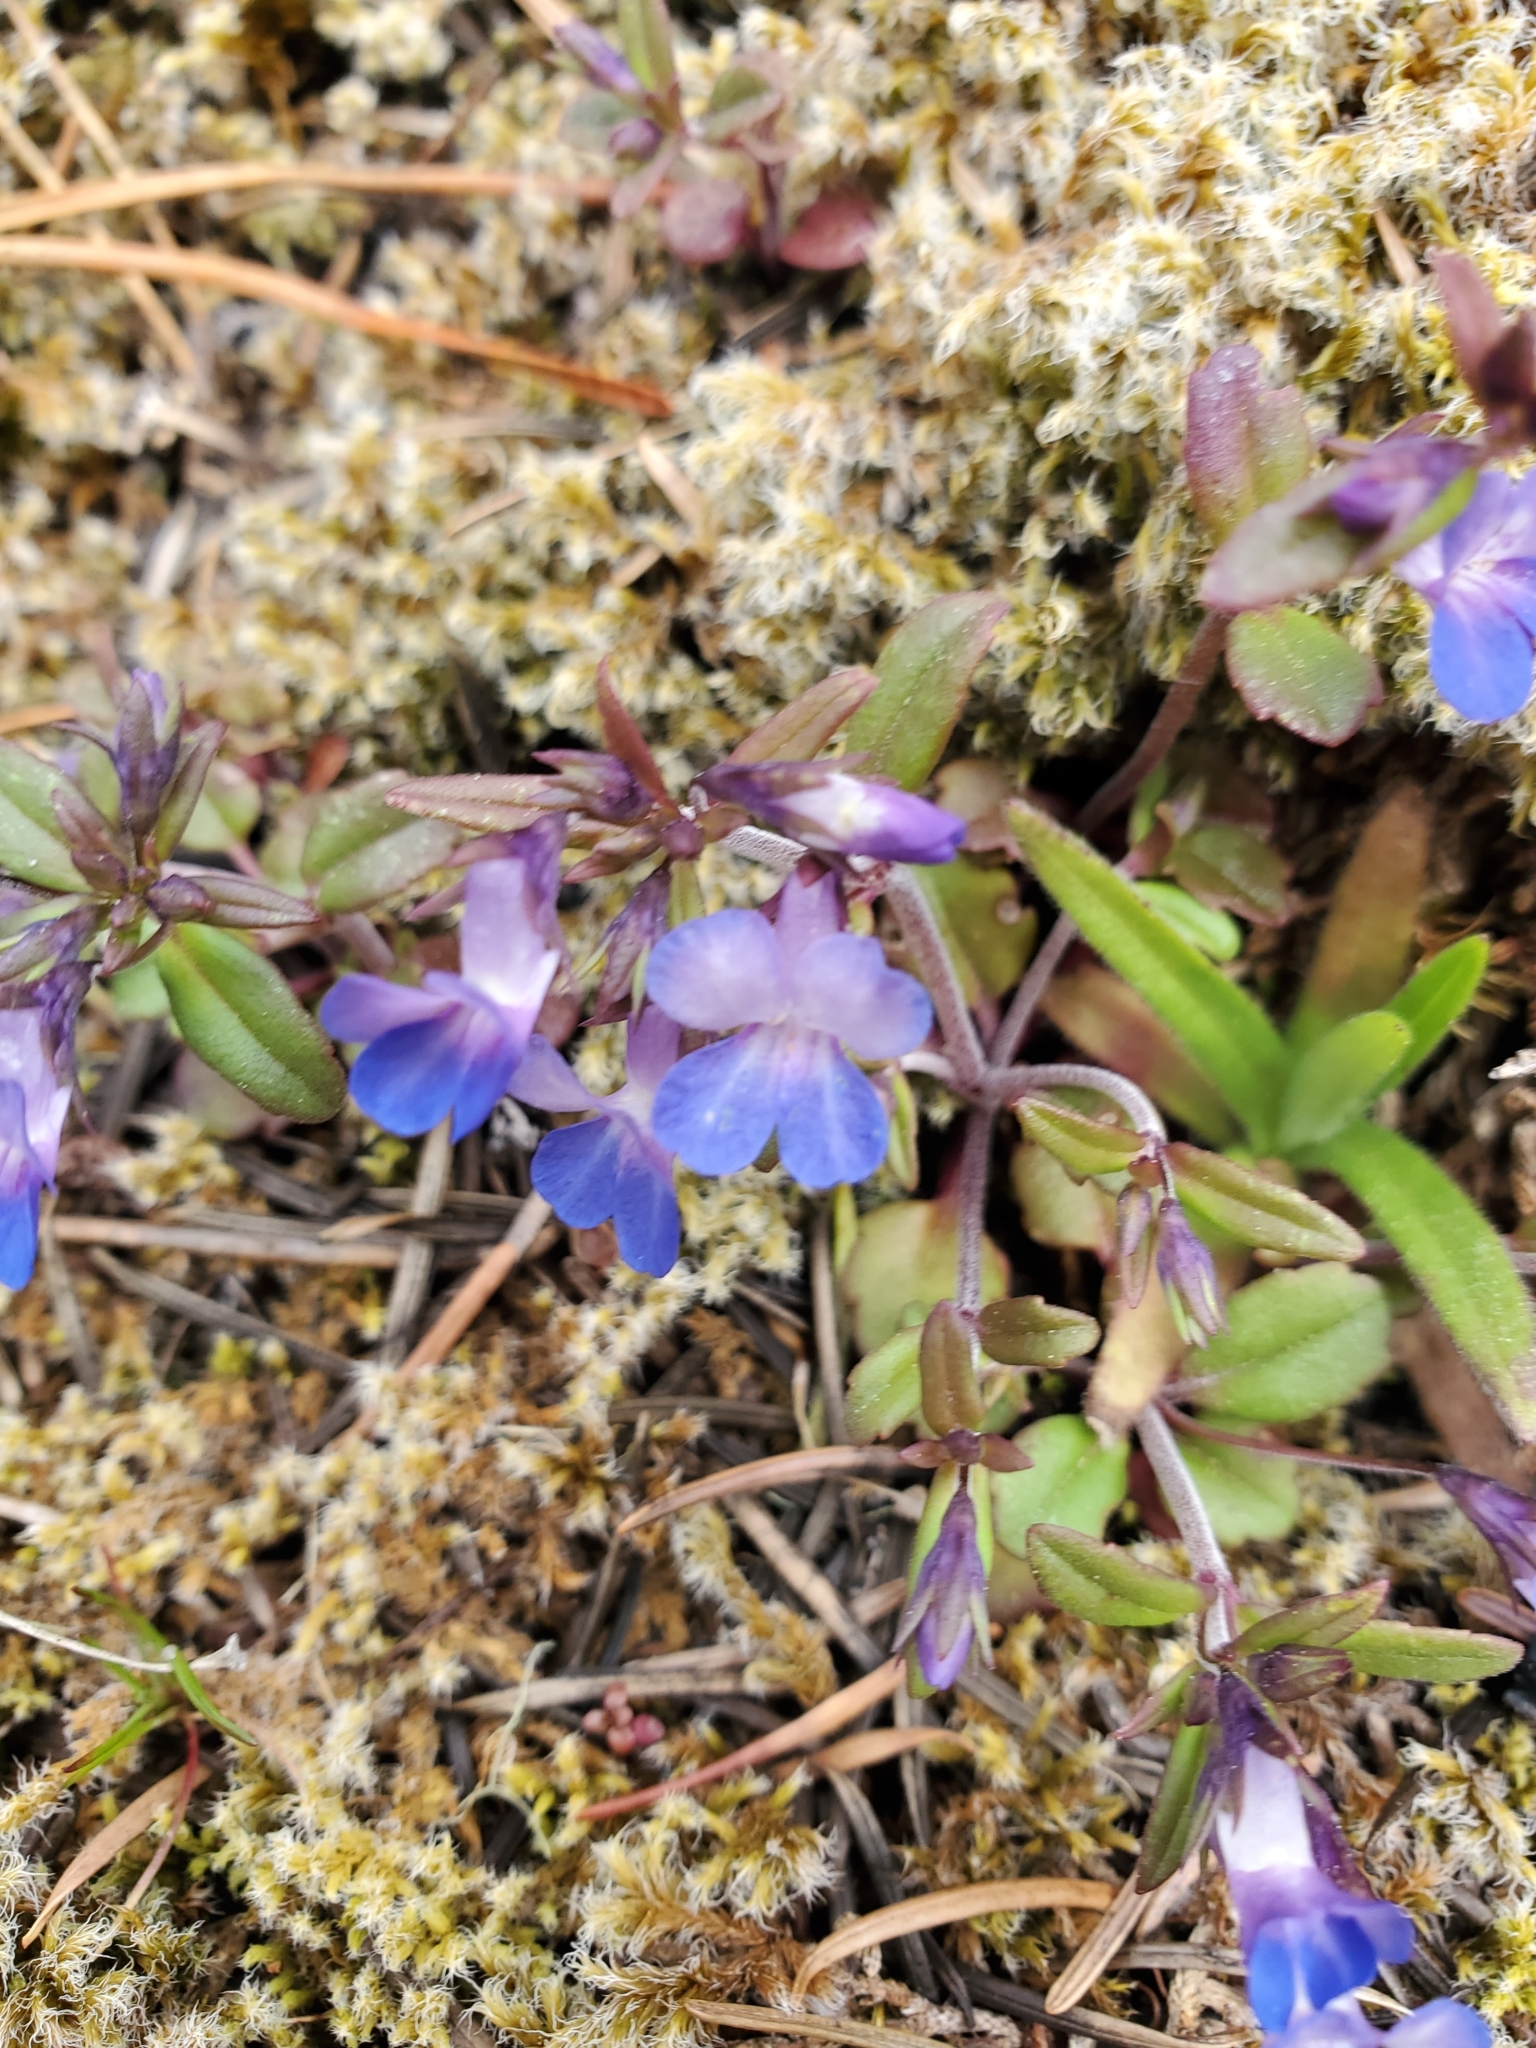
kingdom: Plantae
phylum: Tracheophyta
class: Magnoliopsida
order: Lamiales
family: Plantaginaceae
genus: Collinsia
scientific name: Collinsia grandiflora
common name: Large-flower blue-eyed-mary
